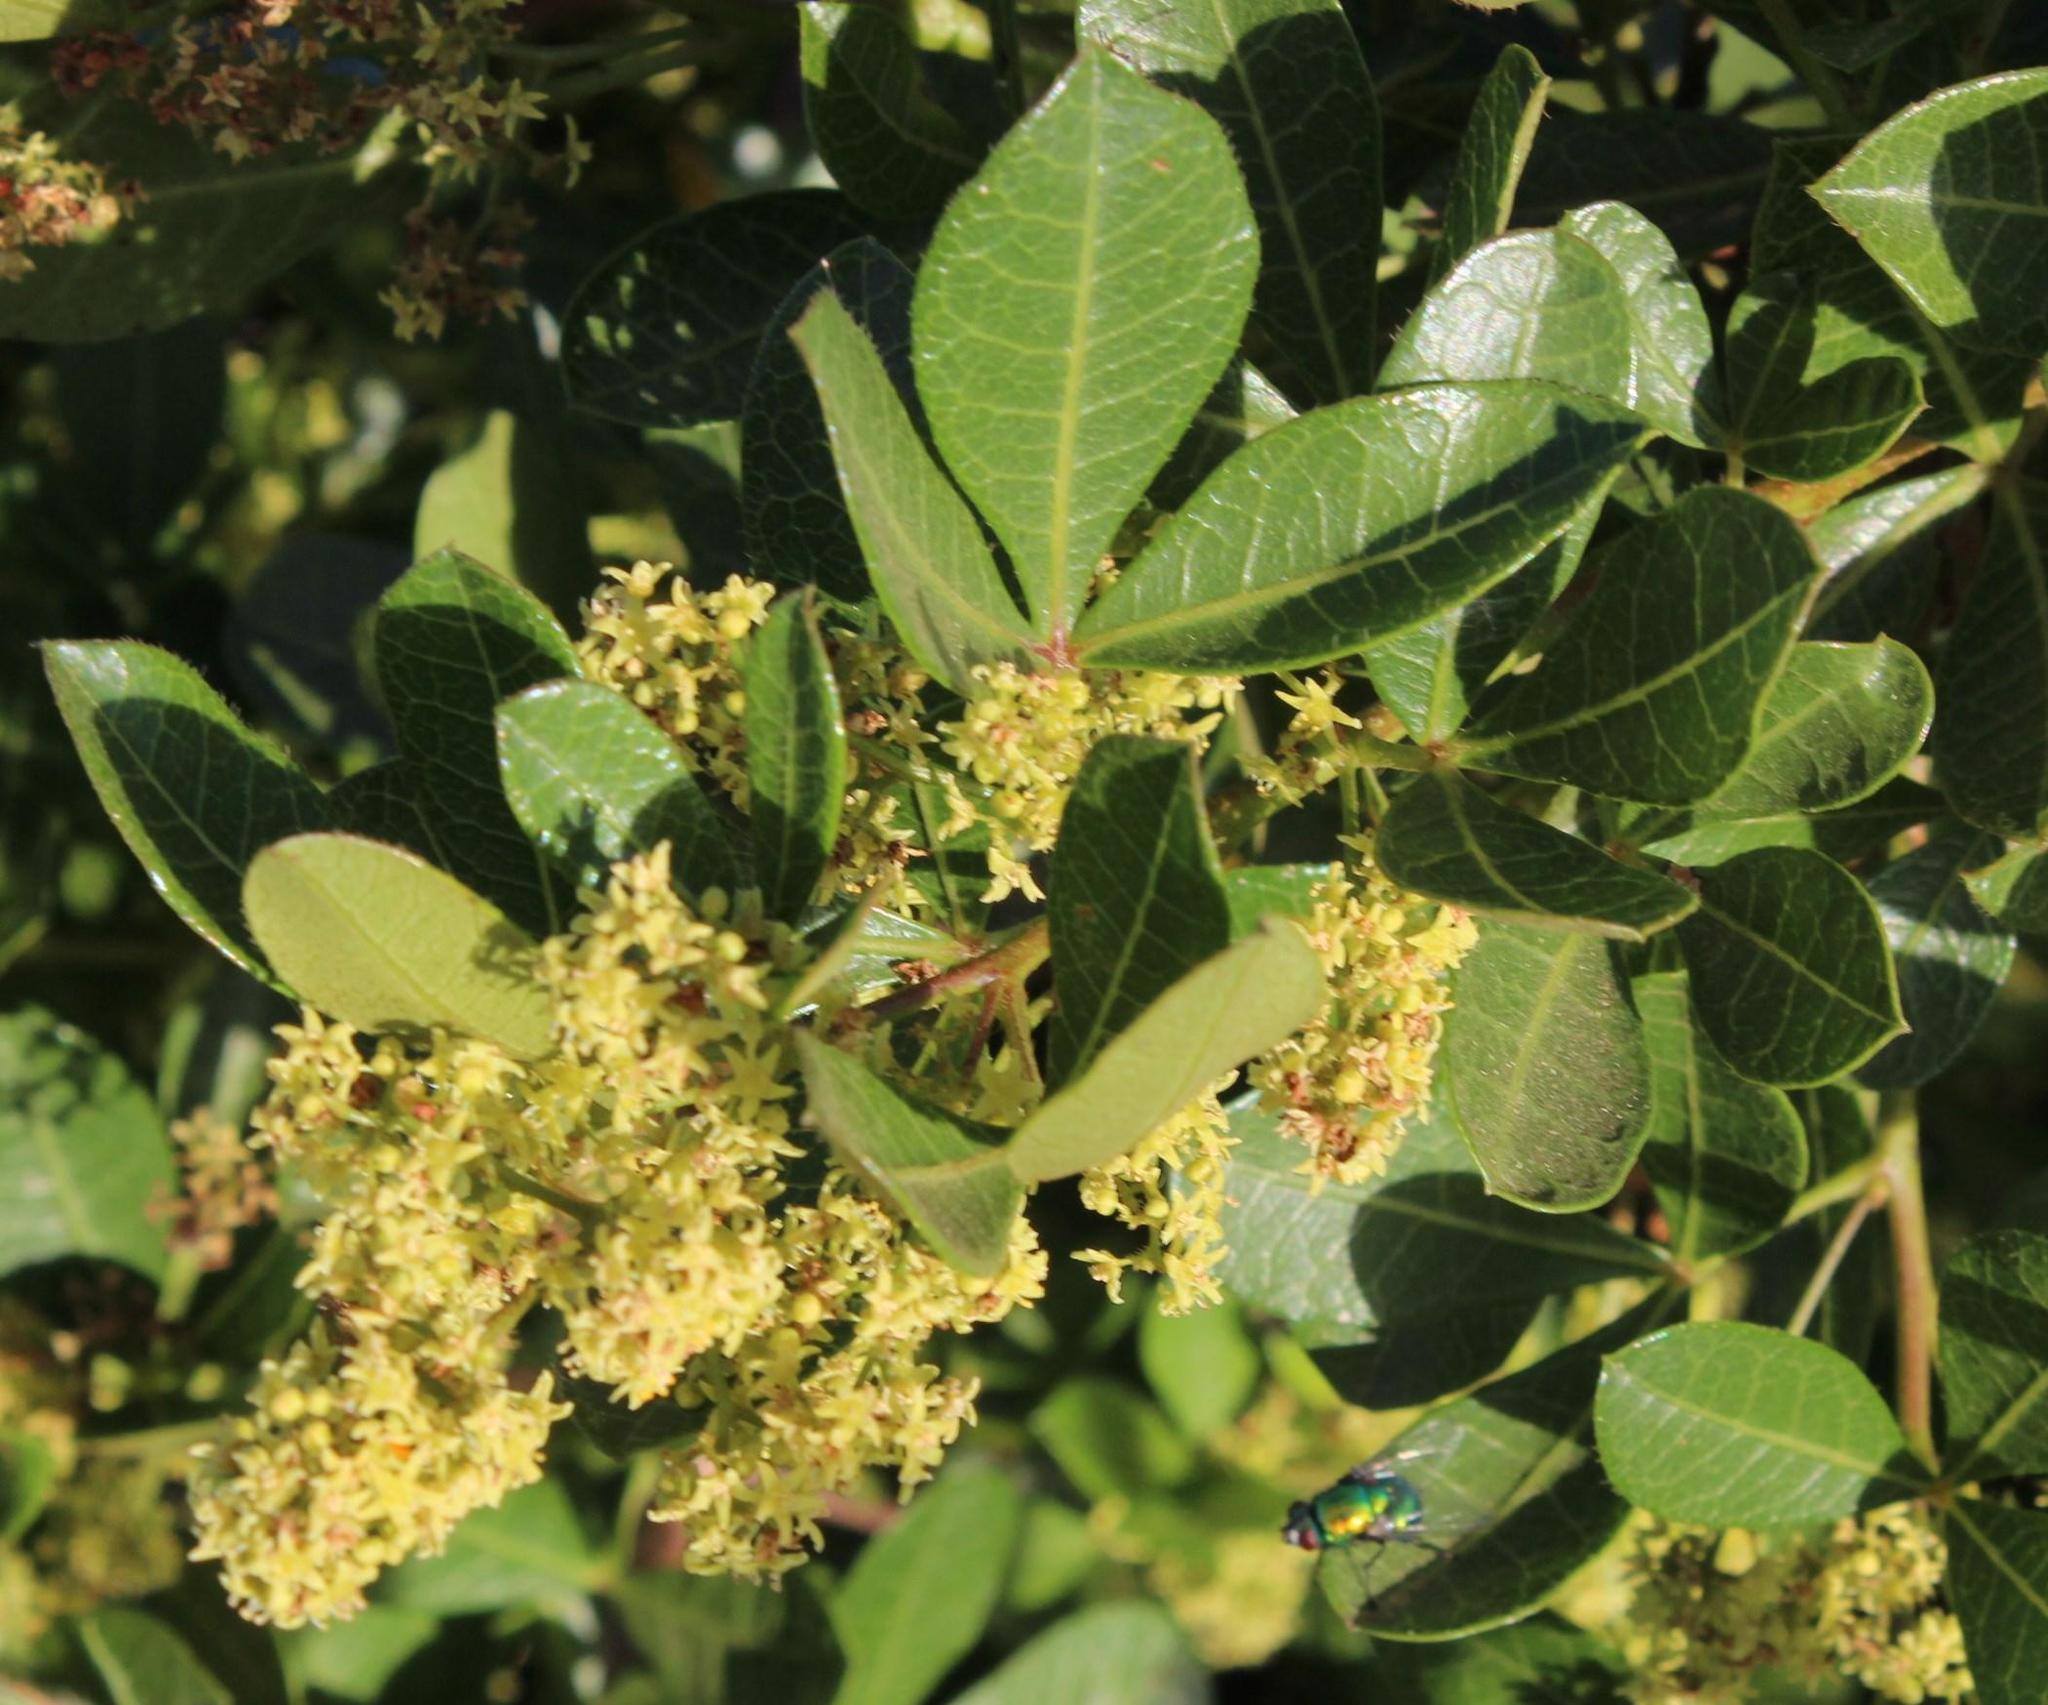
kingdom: Plantae
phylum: Tracheophyta
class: Magnoliopsida
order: Sapindales
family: Anacardiaceae
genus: Searsia
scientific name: Searsia laevigata
